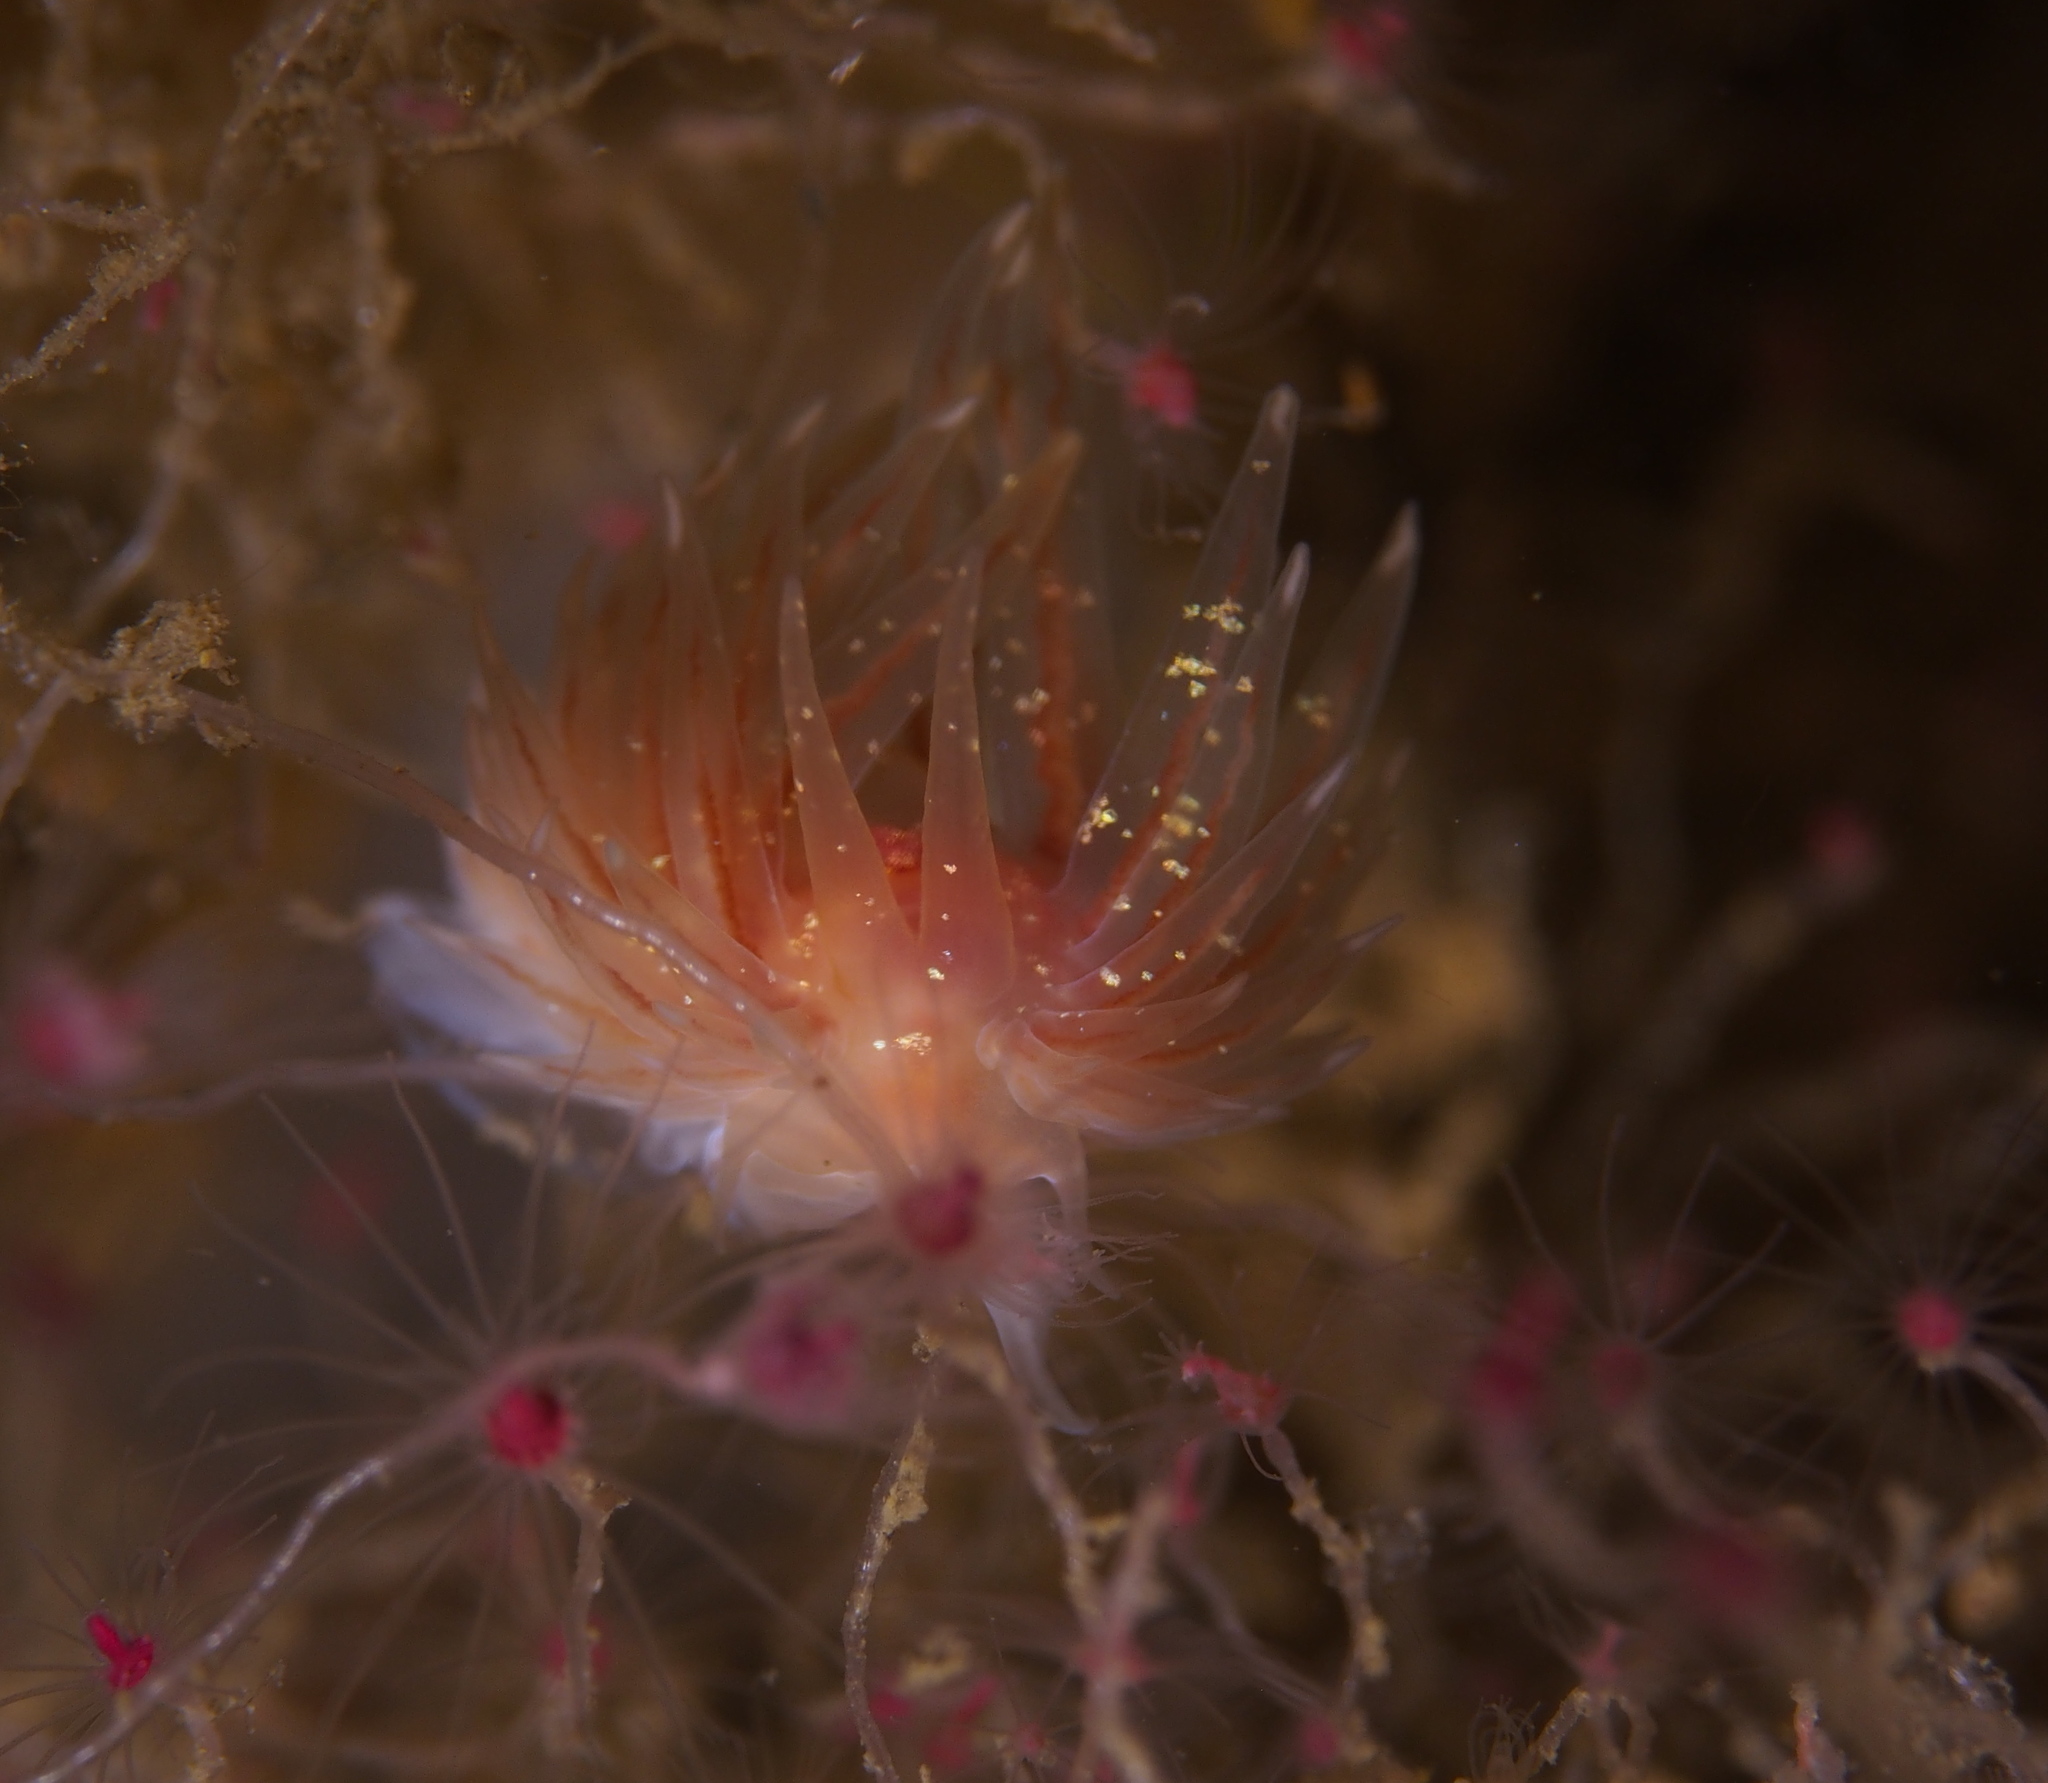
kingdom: Animalia
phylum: Mollusca
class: Gastropoda
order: Nudibranchia
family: Cumanotidae
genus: Cumanotus
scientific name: Cumanotus beaumonti
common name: Polyp aeolis
